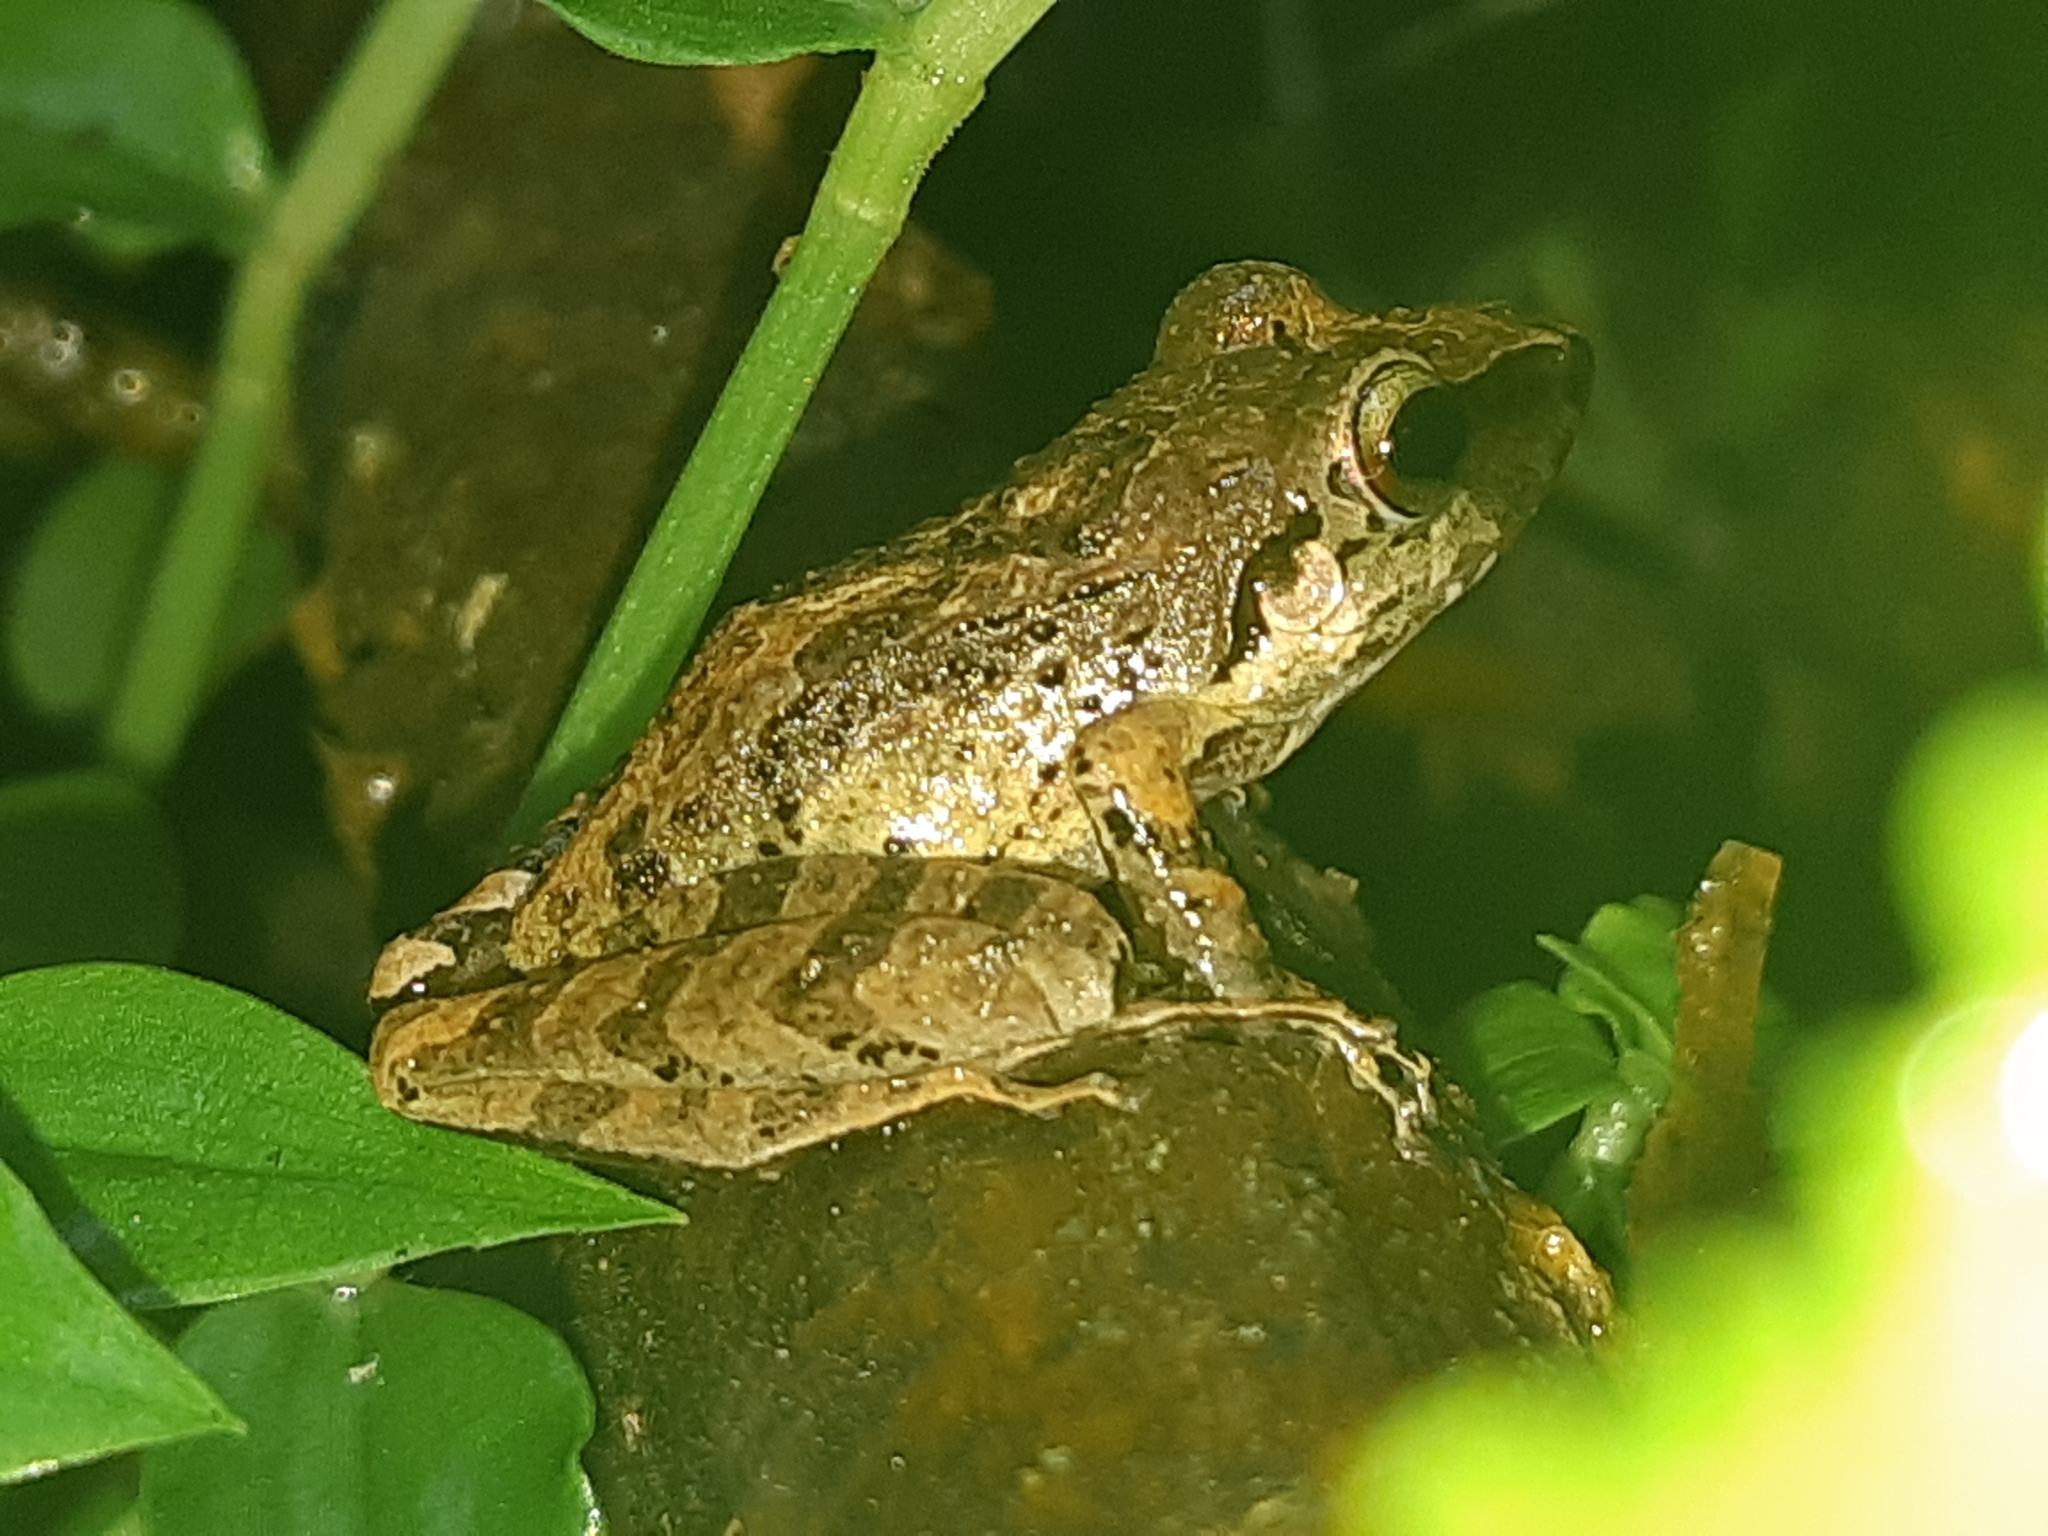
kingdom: Animalia
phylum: Chordata
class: Amphibia
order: Anura
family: Craugastoridae
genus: Pristimantis
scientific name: Pristimantis achatinus
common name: Cachabi robber frog
